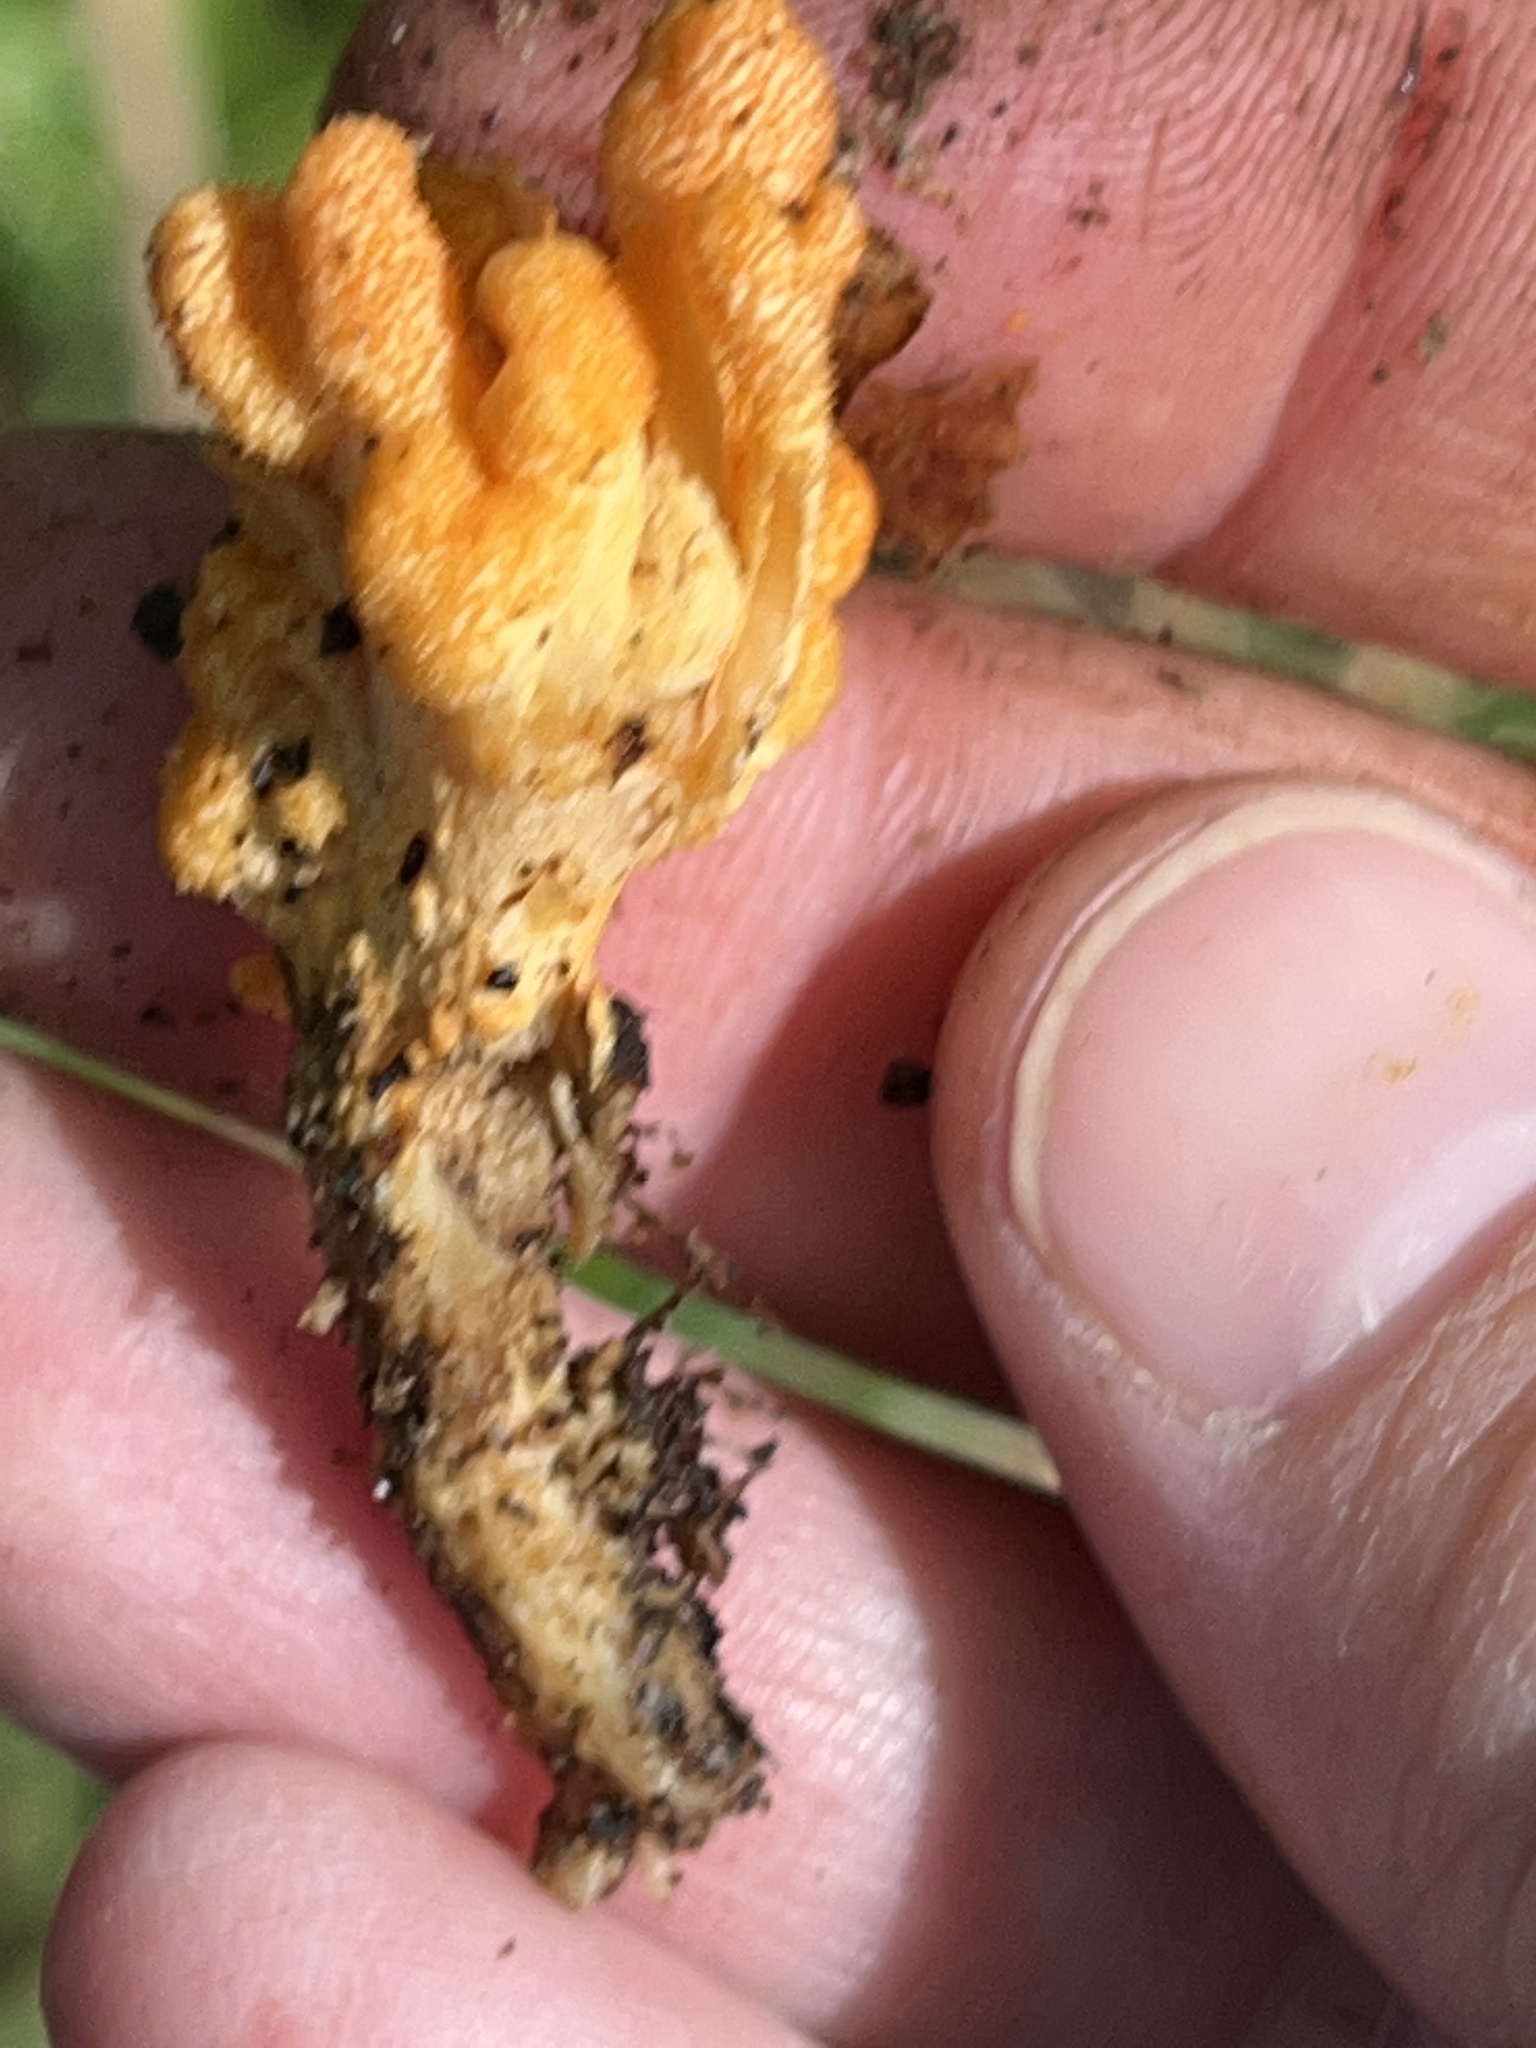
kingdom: Fungi
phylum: Ascomycota
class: Sordariomycetes
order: Hypocreales
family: Cordycipitaceae
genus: Cordyceps
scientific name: Cordyceps militaris
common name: Scarlet caterpillar fungus
